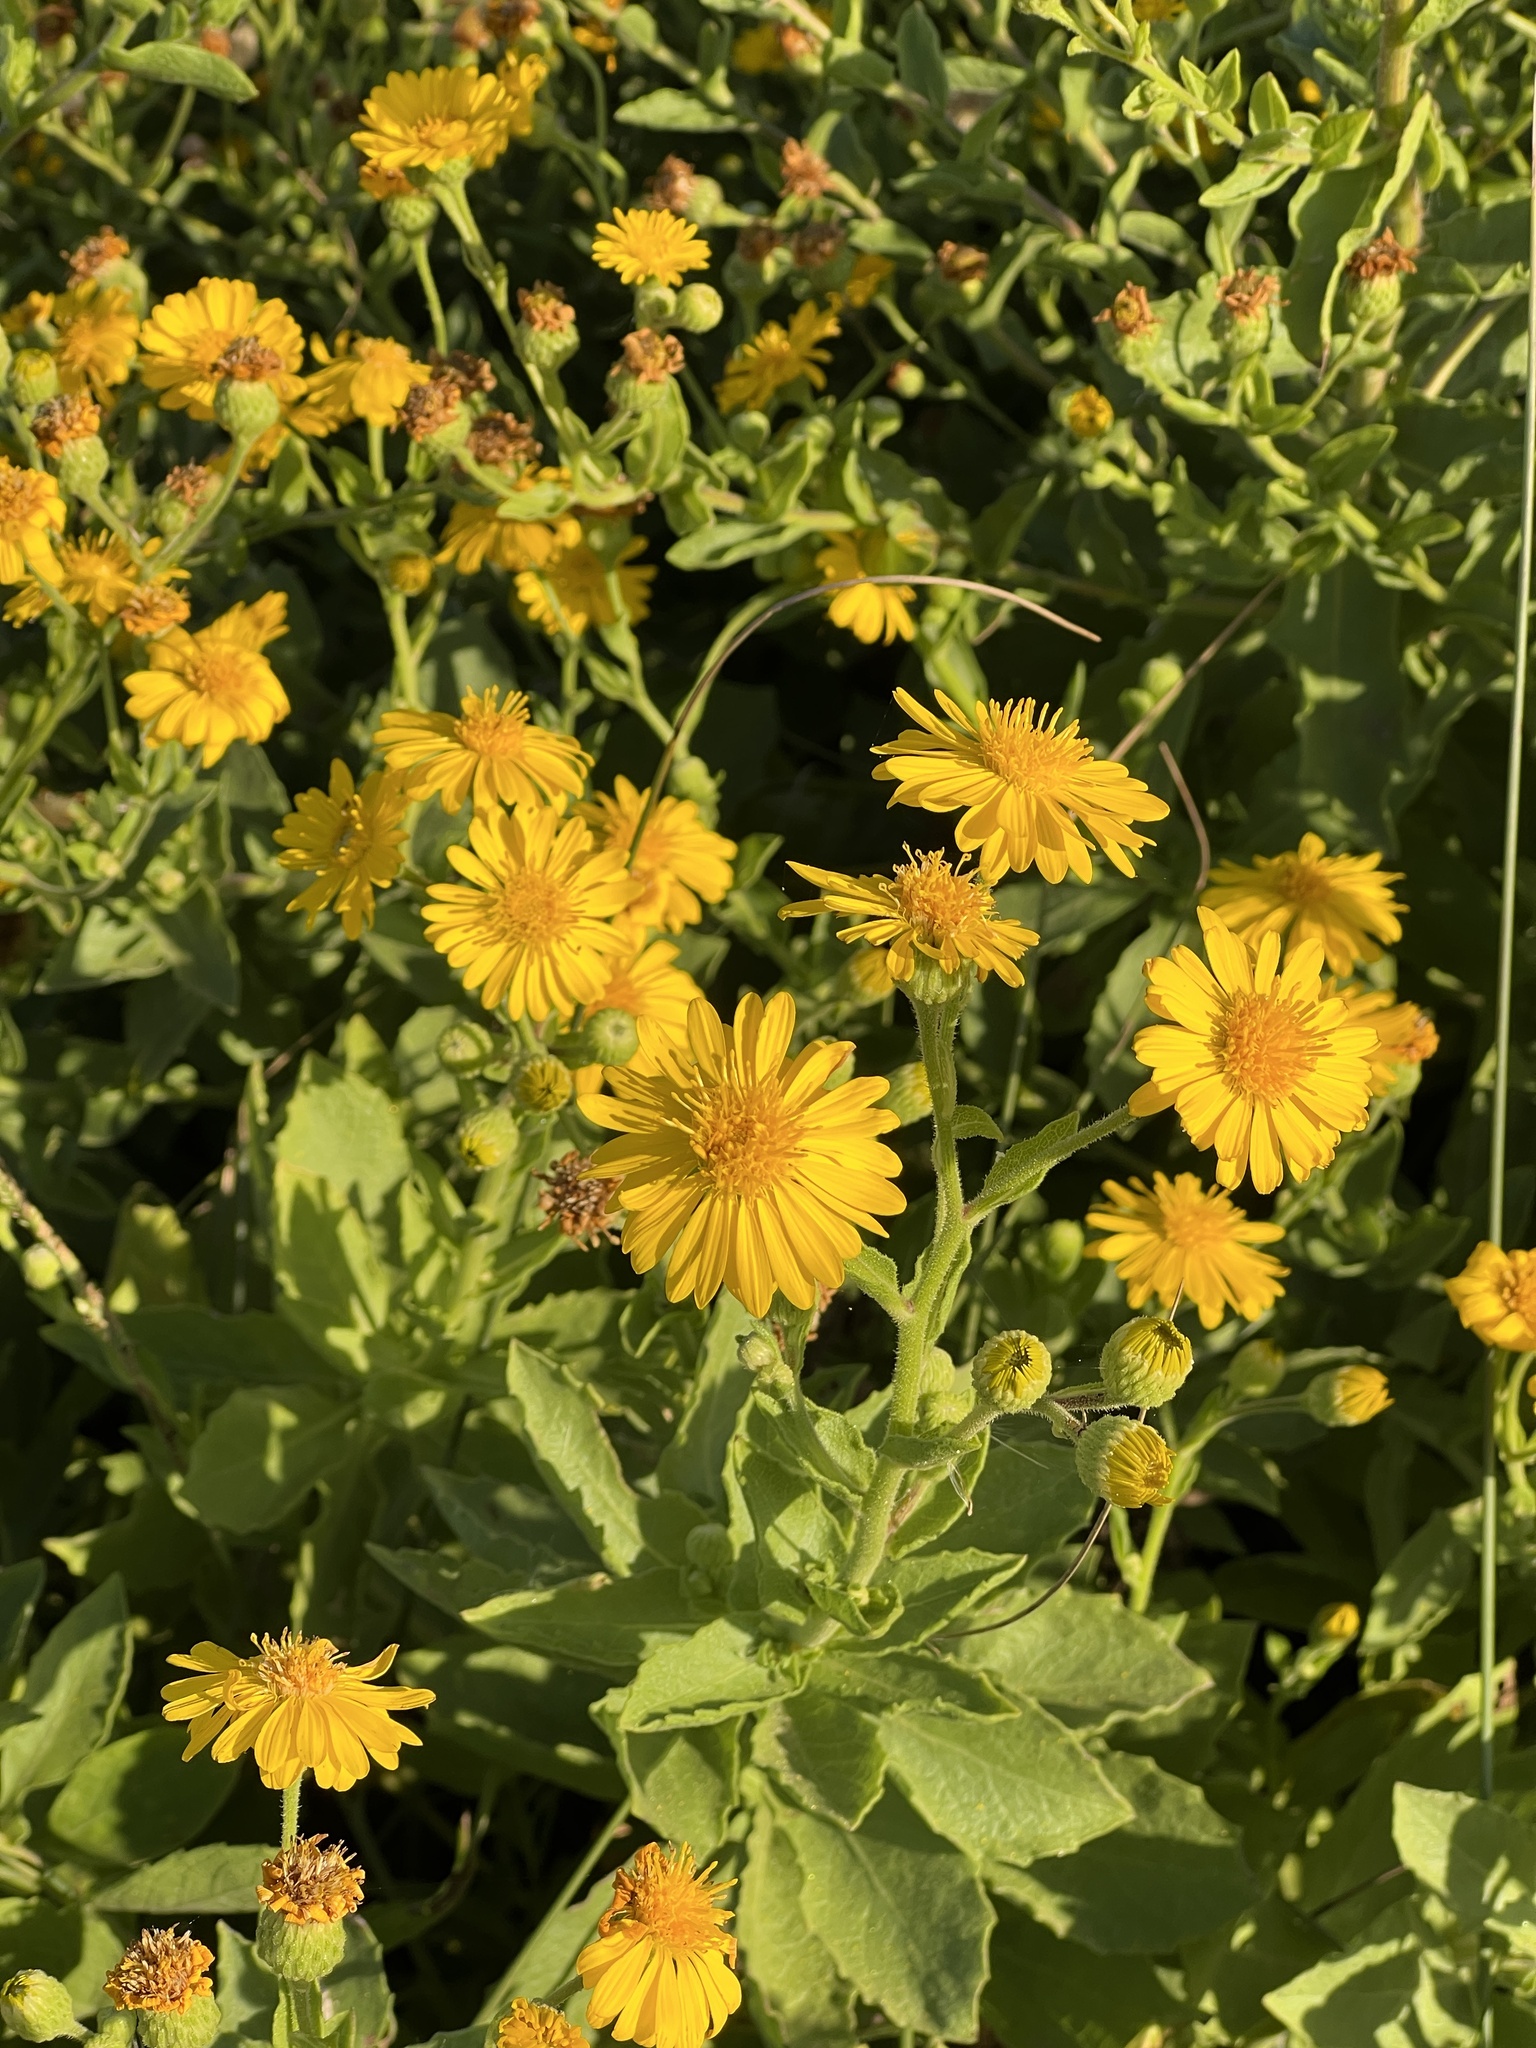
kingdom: Plantae
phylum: Tracheophyta
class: Magnoliopsida
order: Asterales
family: Asteraceae
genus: Heterotheca
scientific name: Heterotheca subaxillaris
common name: Camphorweed
